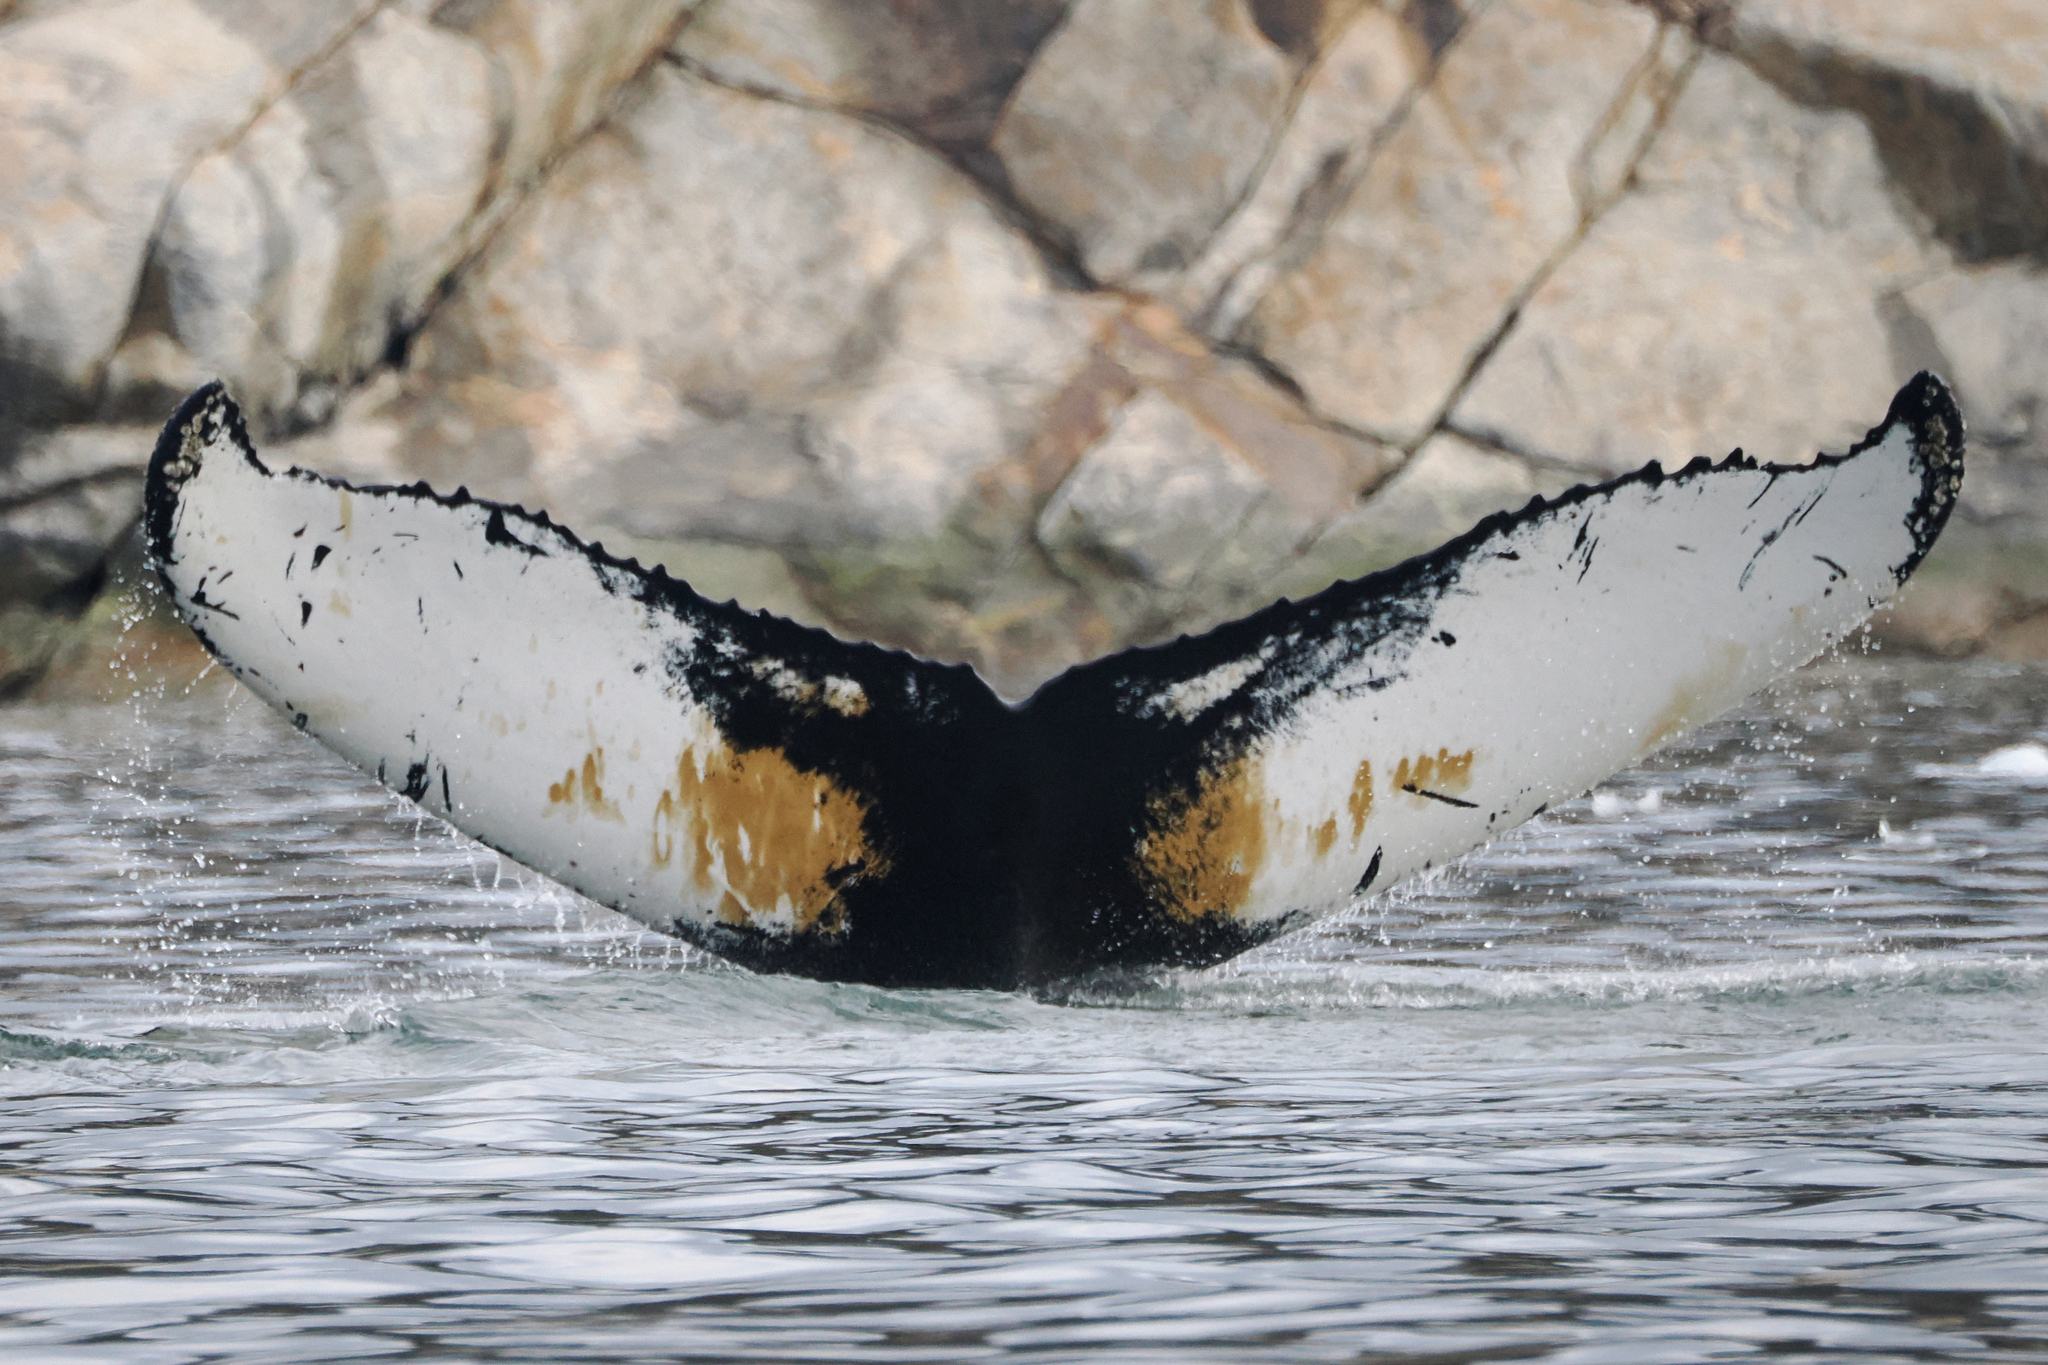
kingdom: Animalia
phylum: Chordata
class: Mammalia
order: Cetacea
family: Balaenopteridae
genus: Megaptera
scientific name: Megaptera novaeangliae
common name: Humpback whale
